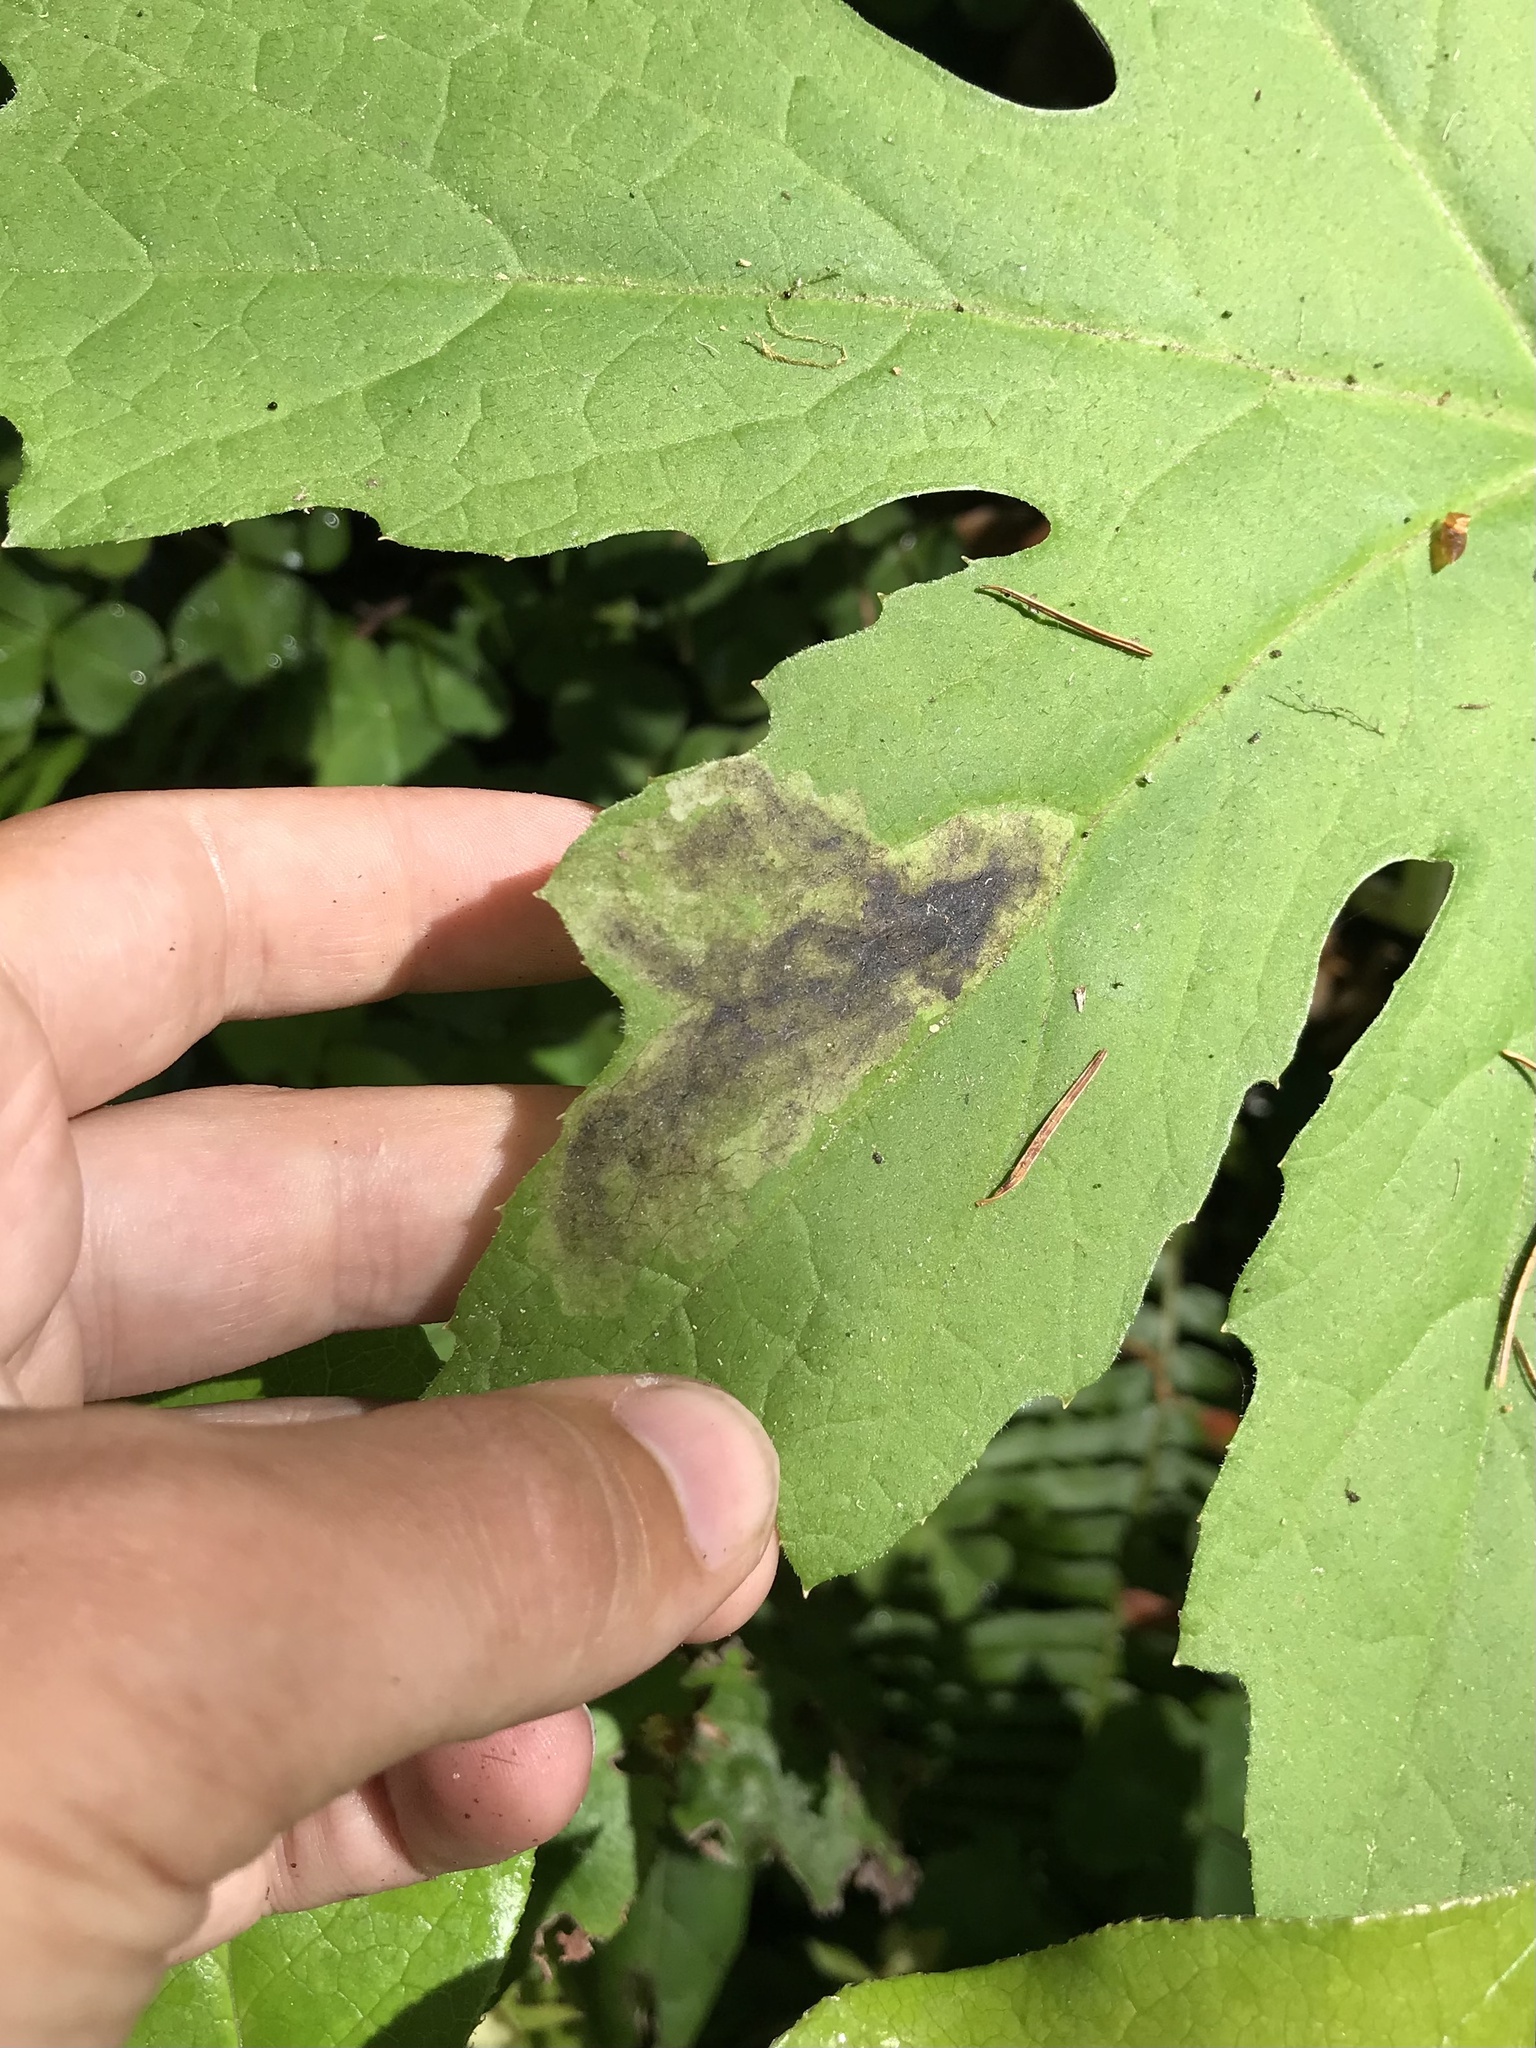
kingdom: Animalia
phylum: Arthropoda
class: Insecta
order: Diptera
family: Anthomyiidae
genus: Pegomya
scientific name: Pegomya depressiventris
